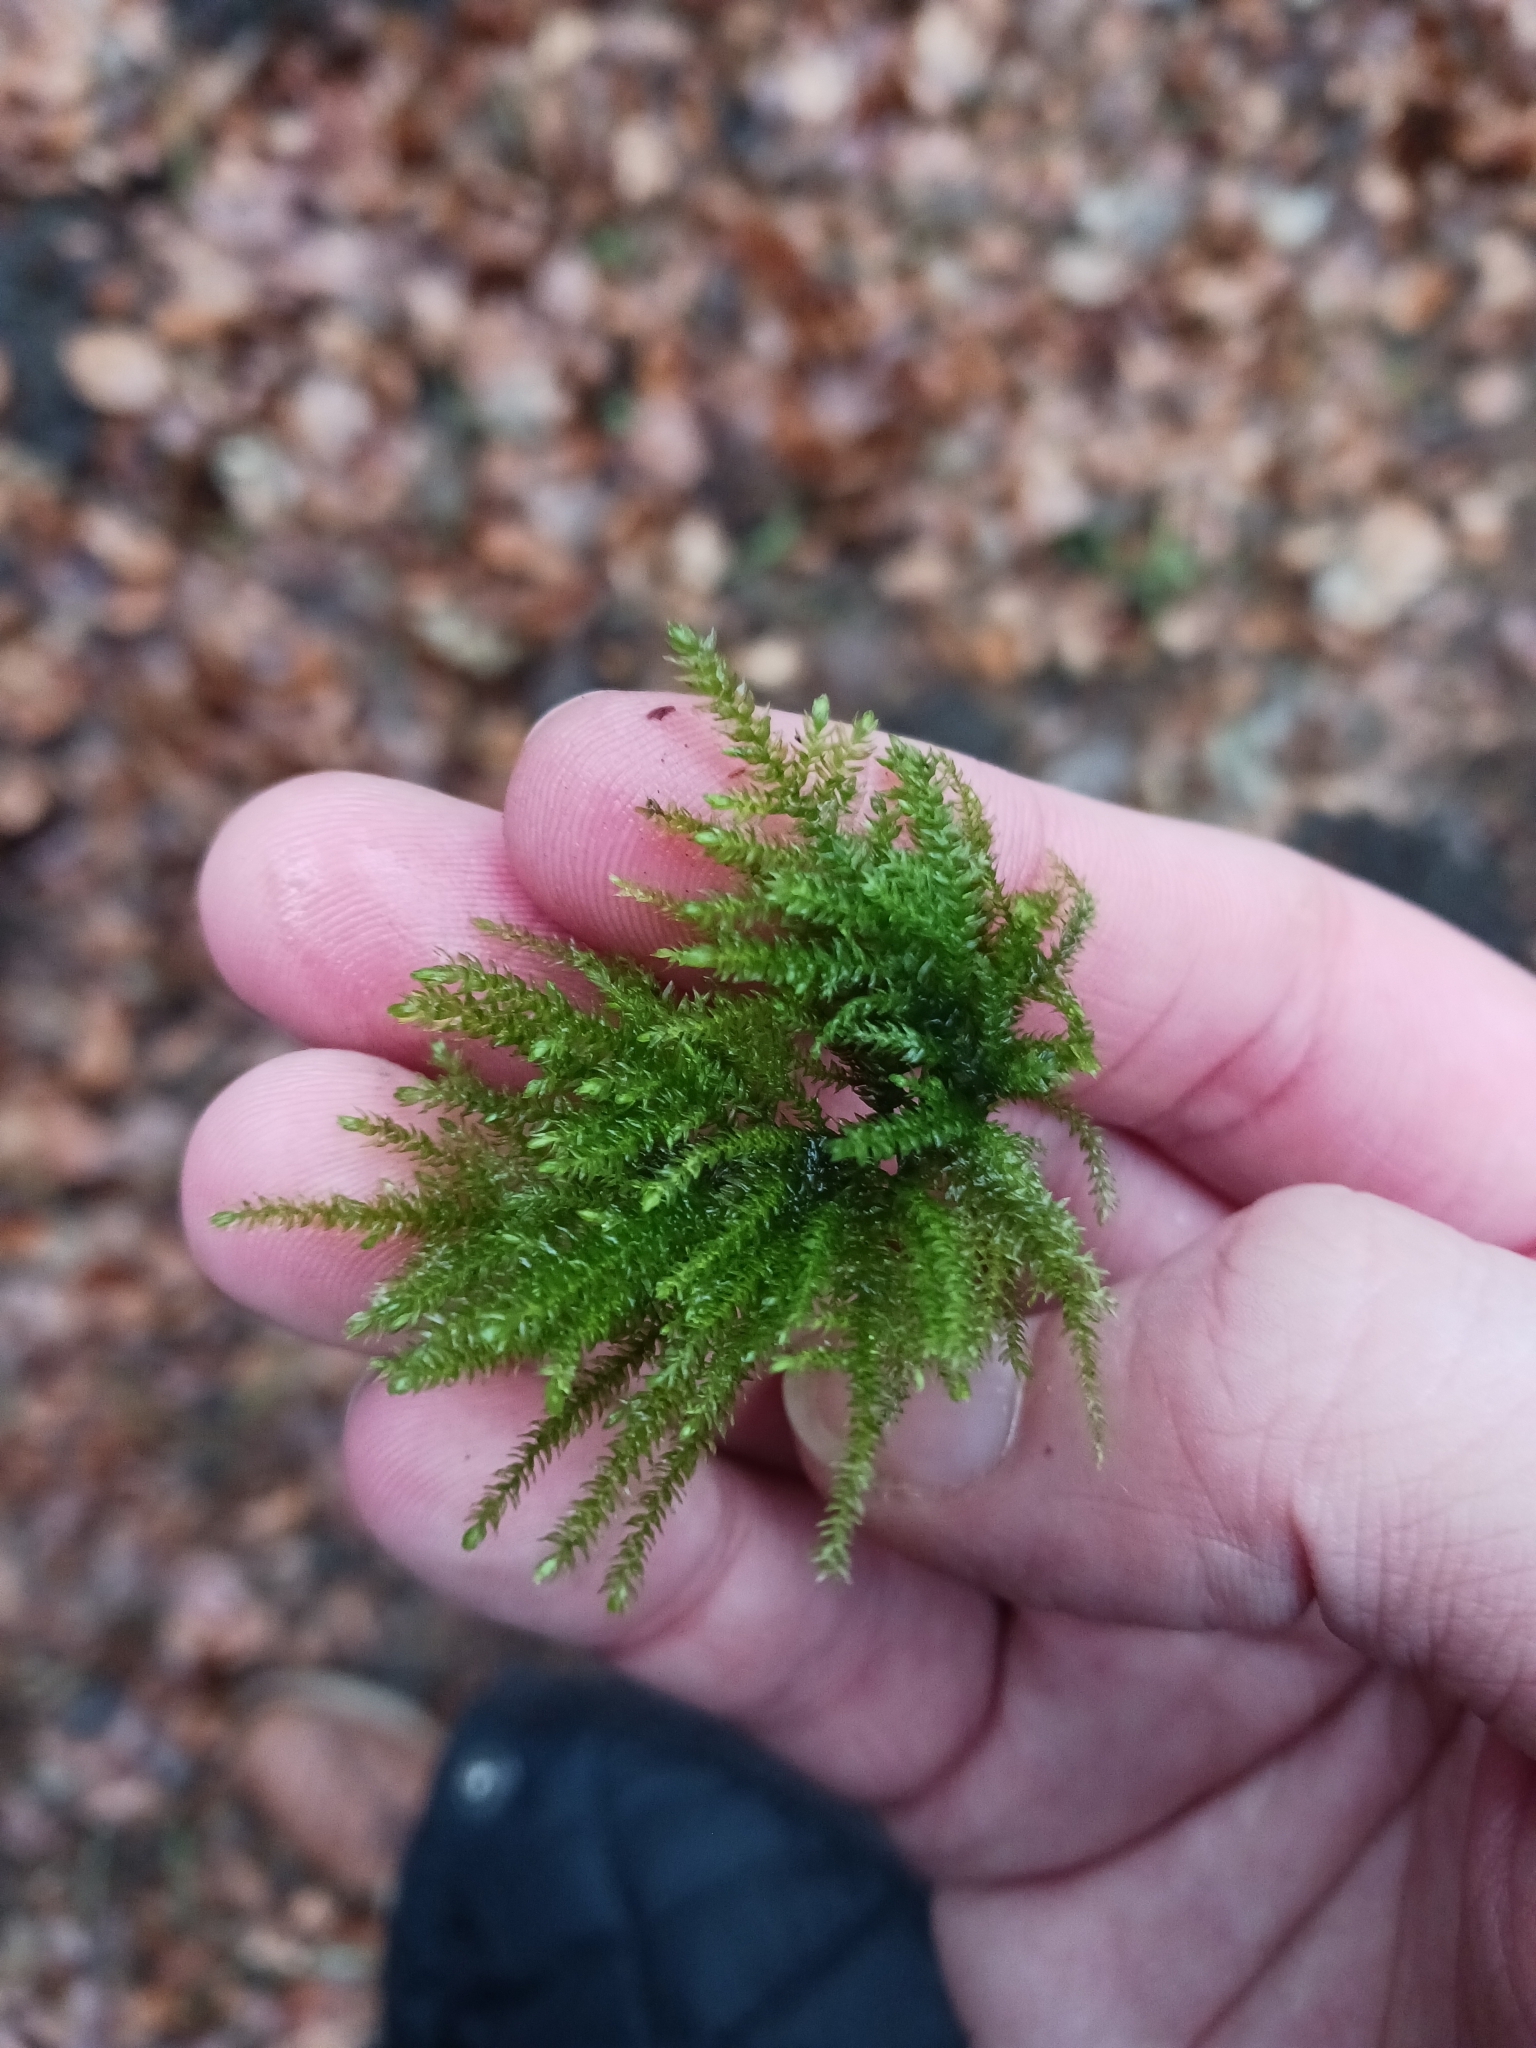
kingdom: Plantae
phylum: Bryophyta
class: Bryopsida
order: Hypnales
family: Neckeraceae
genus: Thamnobryum
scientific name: Thamnobryum alopecurum
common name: Fox-tail feather-moss
